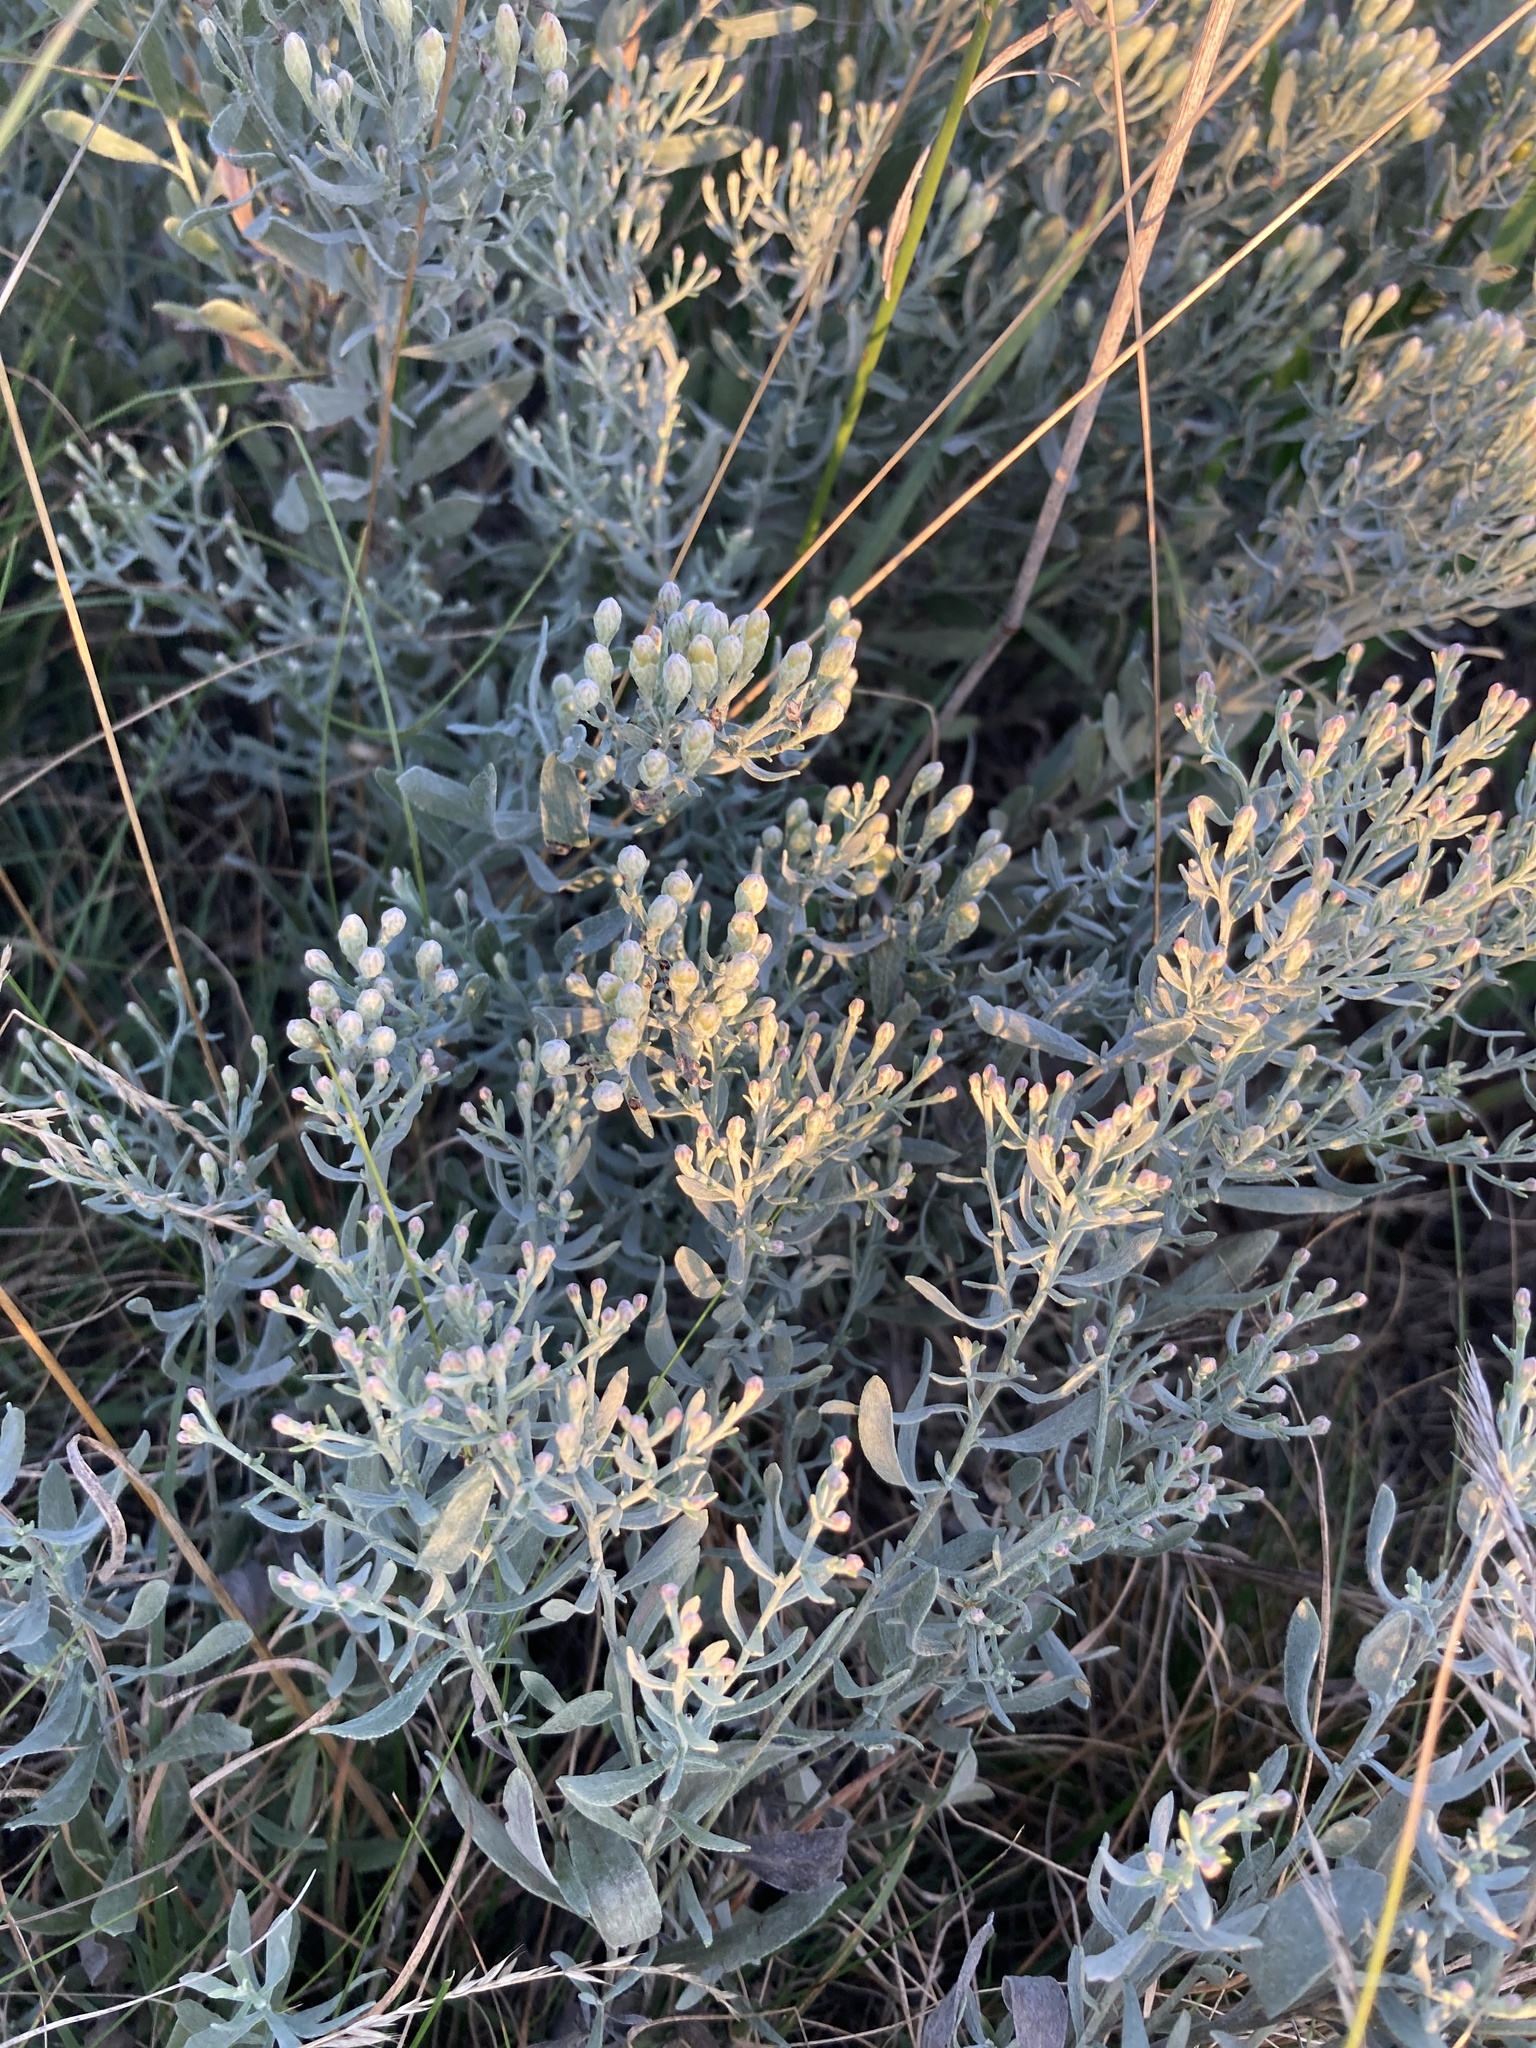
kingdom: Plantae
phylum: Tracheophyta
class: Magnoliopsida
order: Asterales
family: Asteraceae
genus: Galatella
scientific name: Galatella villosa
